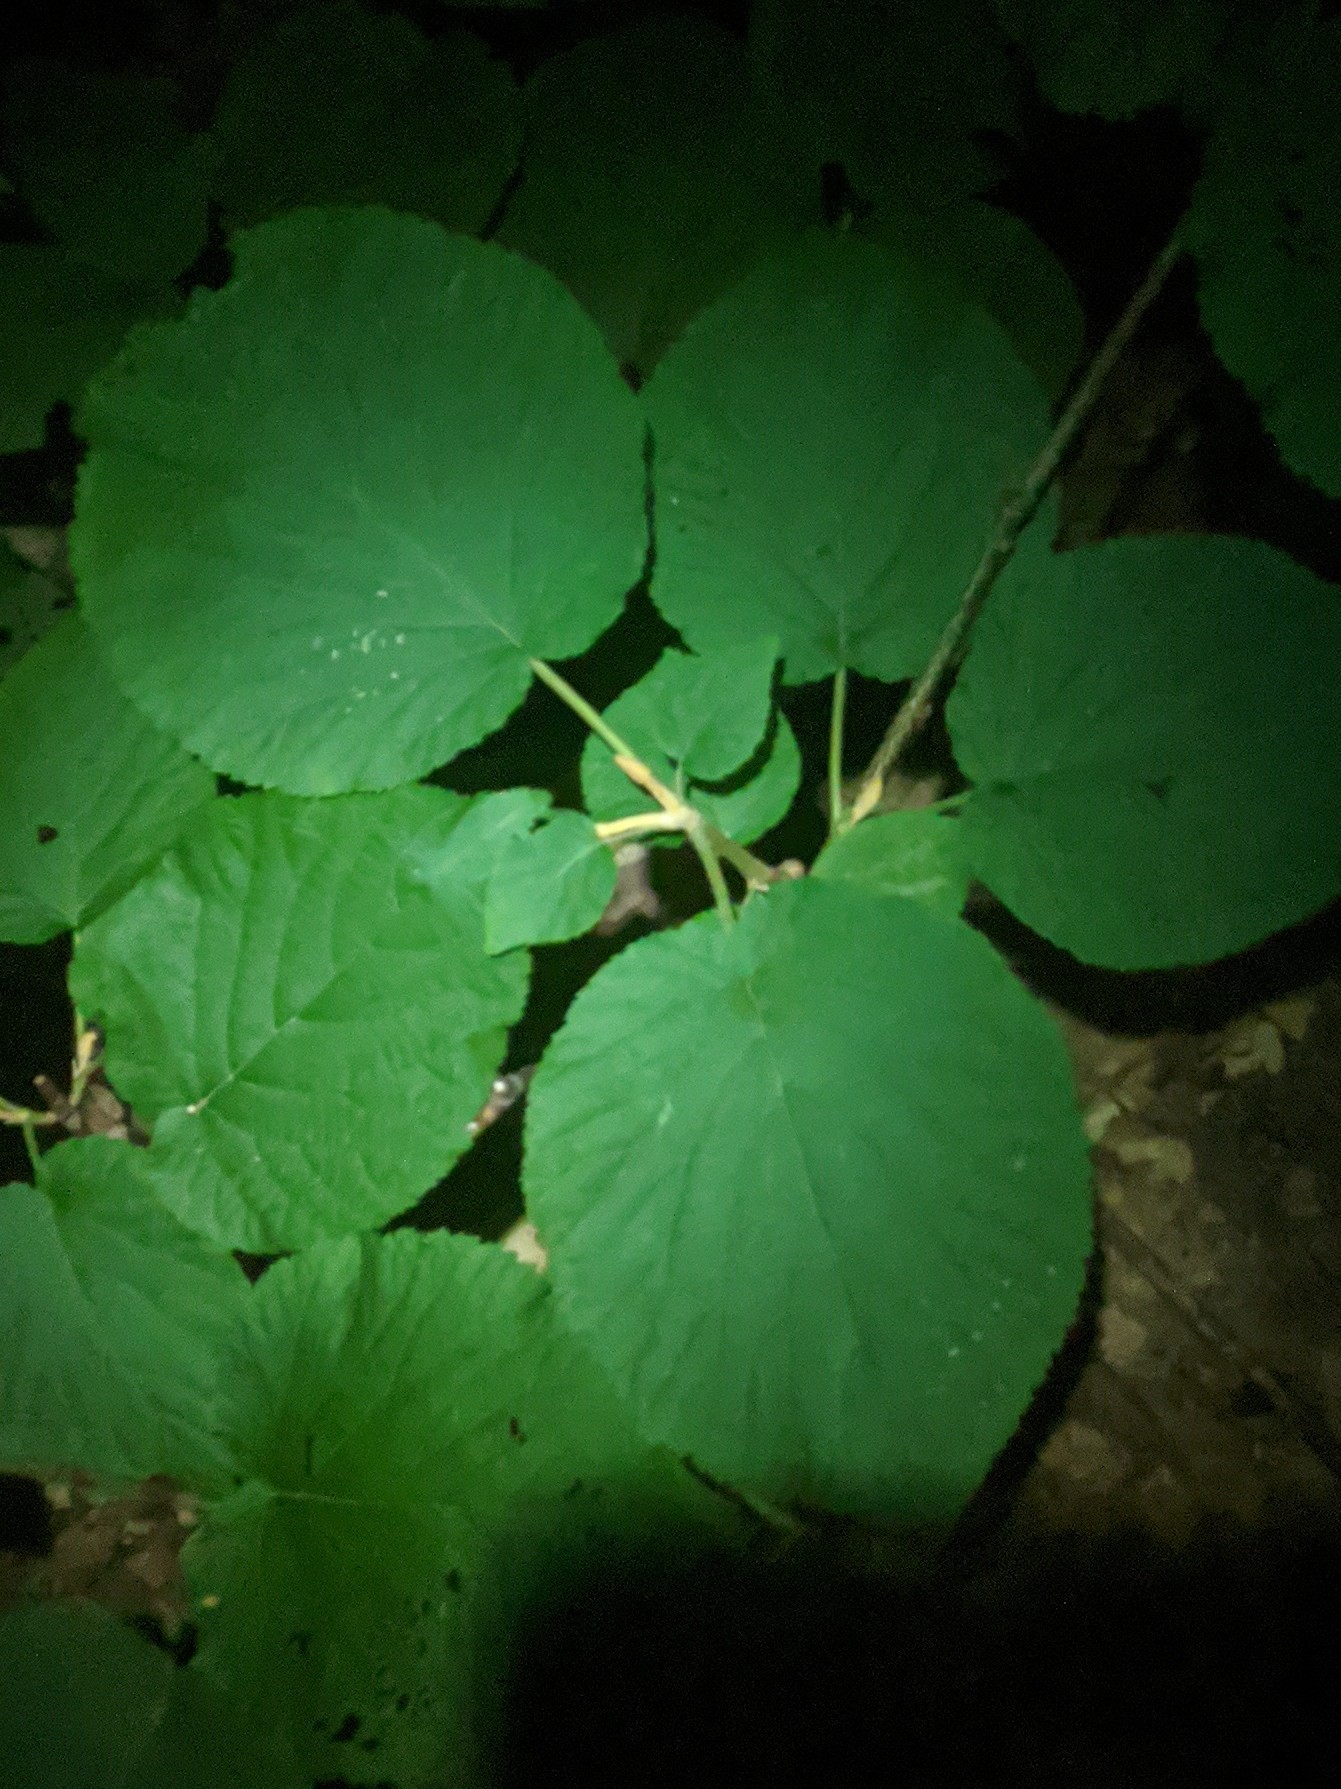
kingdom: Plantae
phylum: Tracheophyta
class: Magnoliopsida
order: Dipsacales
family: Viburnaceae
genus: Viburnum
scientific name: Viburnum lantanoides
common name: Hobblebush
